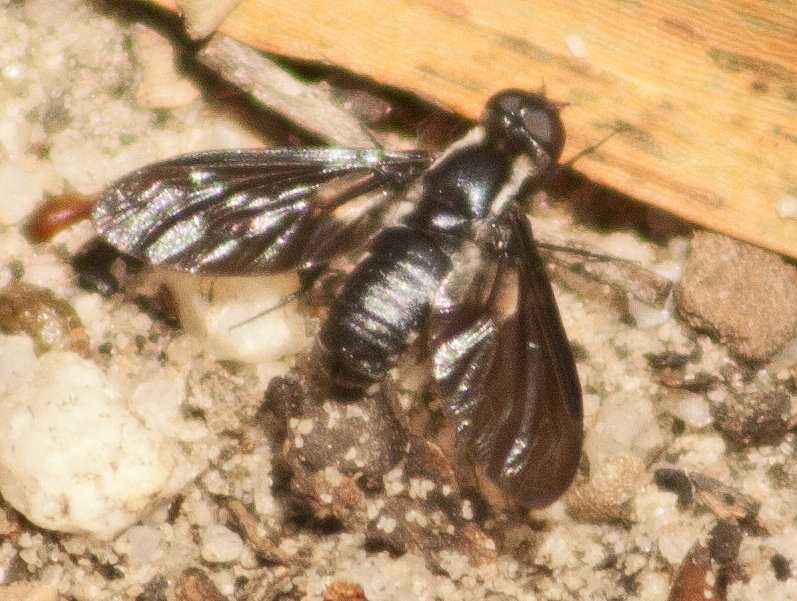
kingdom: Animalia
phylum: Arthropoda
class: Insecta
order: Diptera
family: Bombyliidae
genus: Pseudopenthes
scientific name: Pseudopenthes fenestrata
